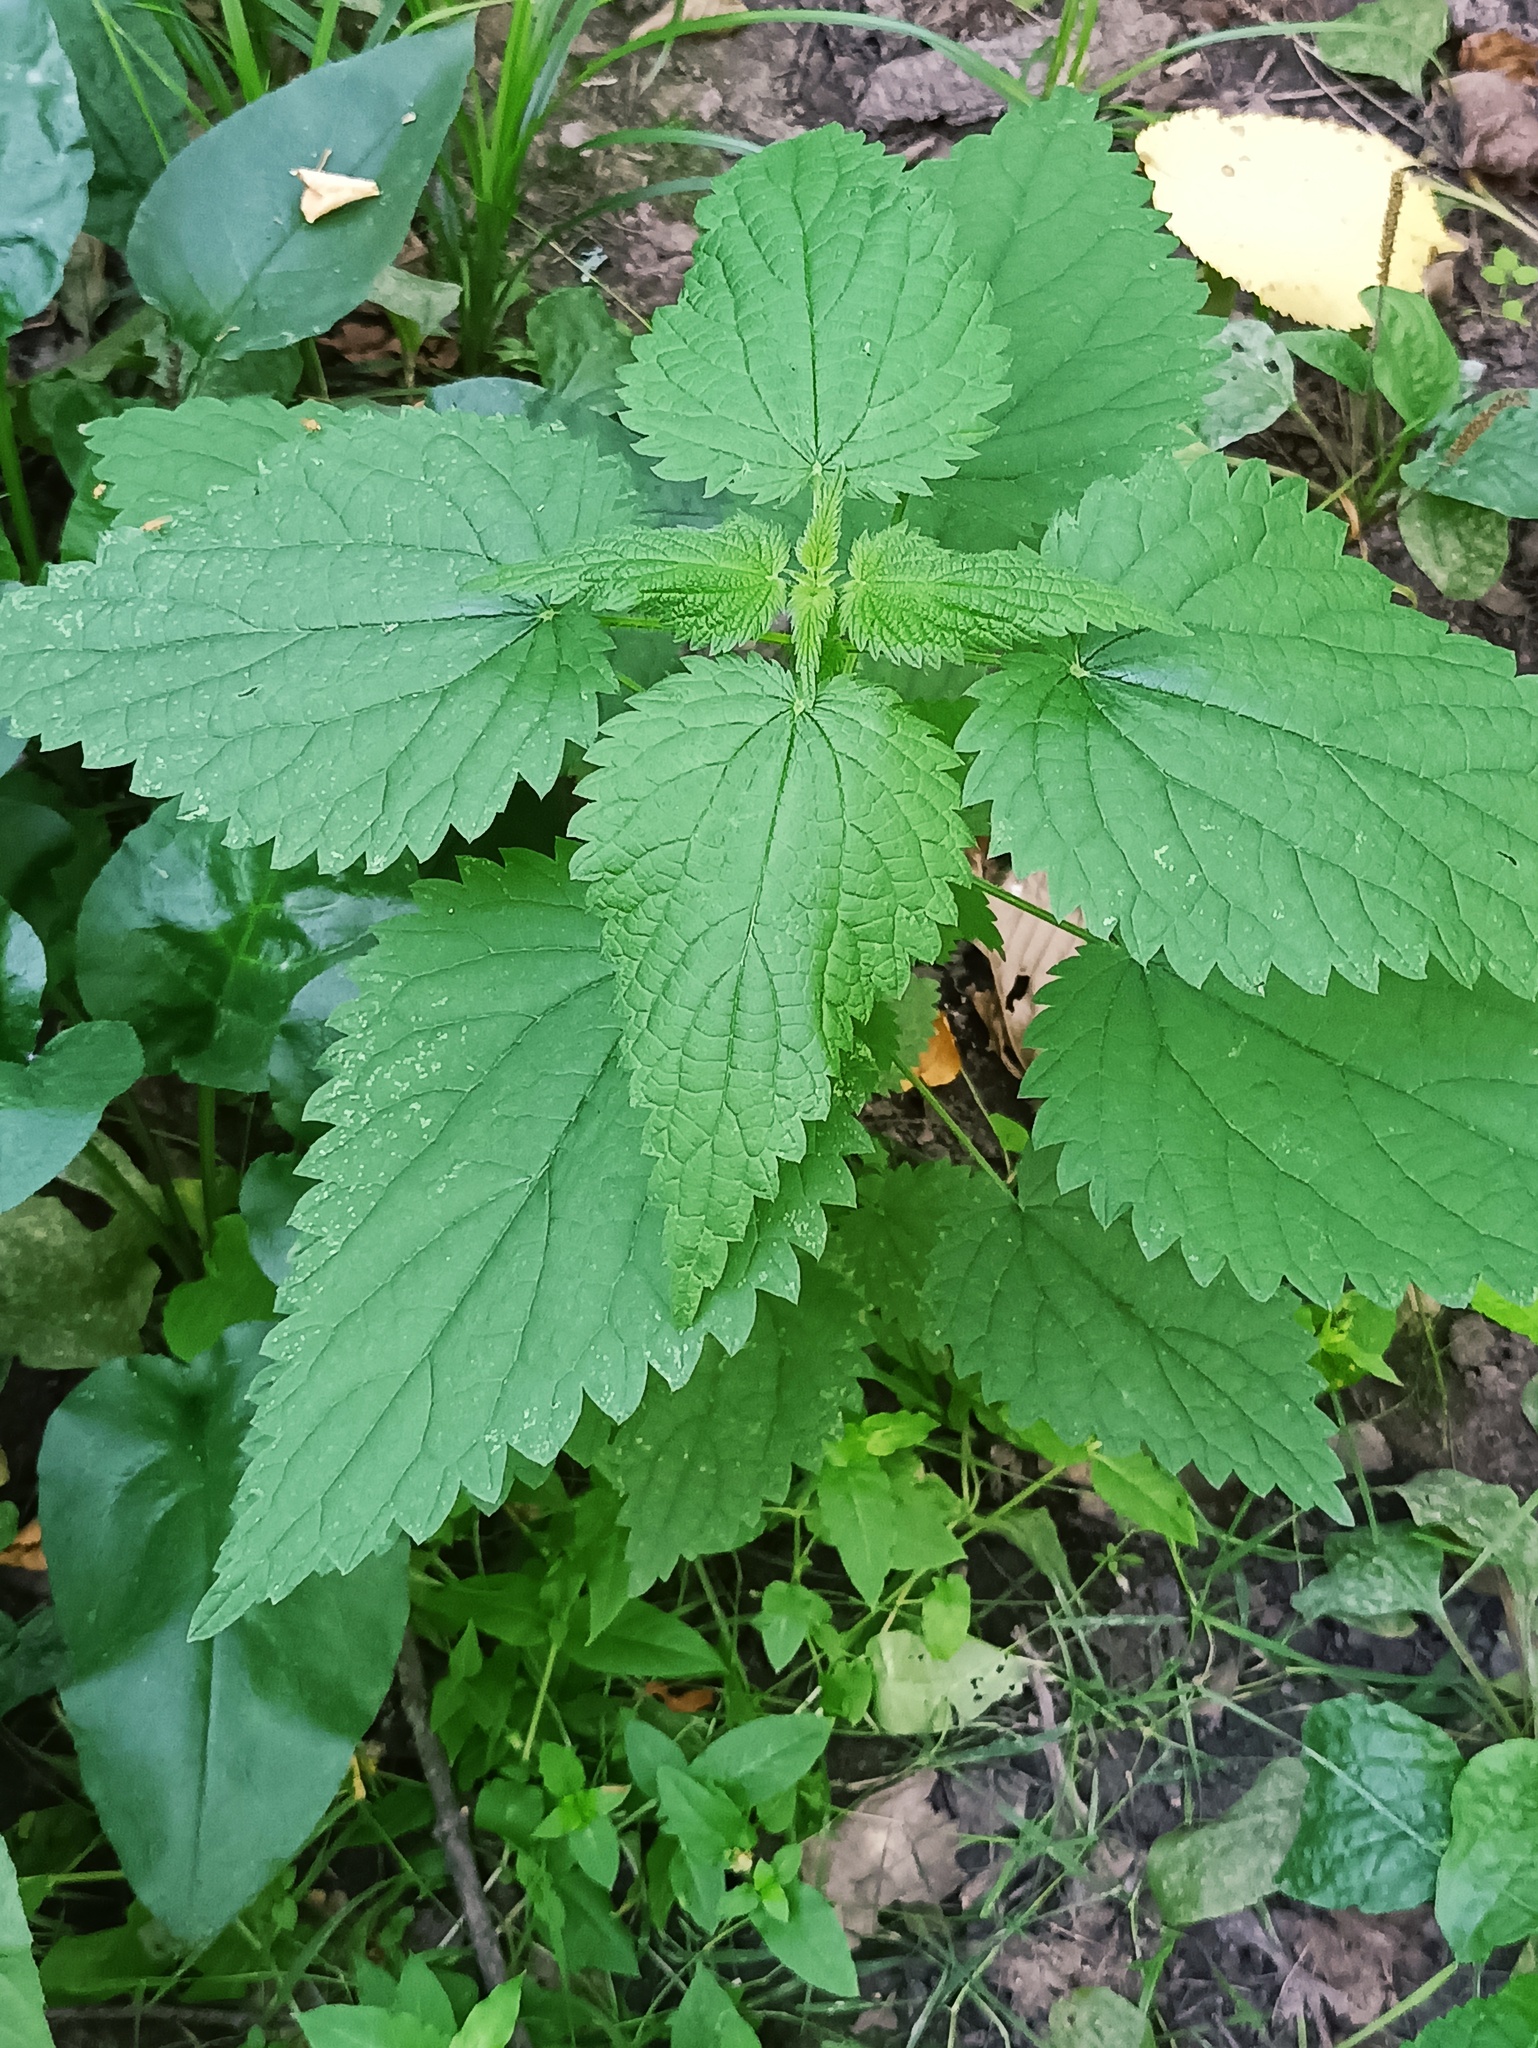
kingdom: Plantae
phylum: Tracheophyta
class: Magnoliopsida
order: Rosales
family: Urticaceae
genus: Urtica
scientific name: Urtica dioica
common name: Common nettle
